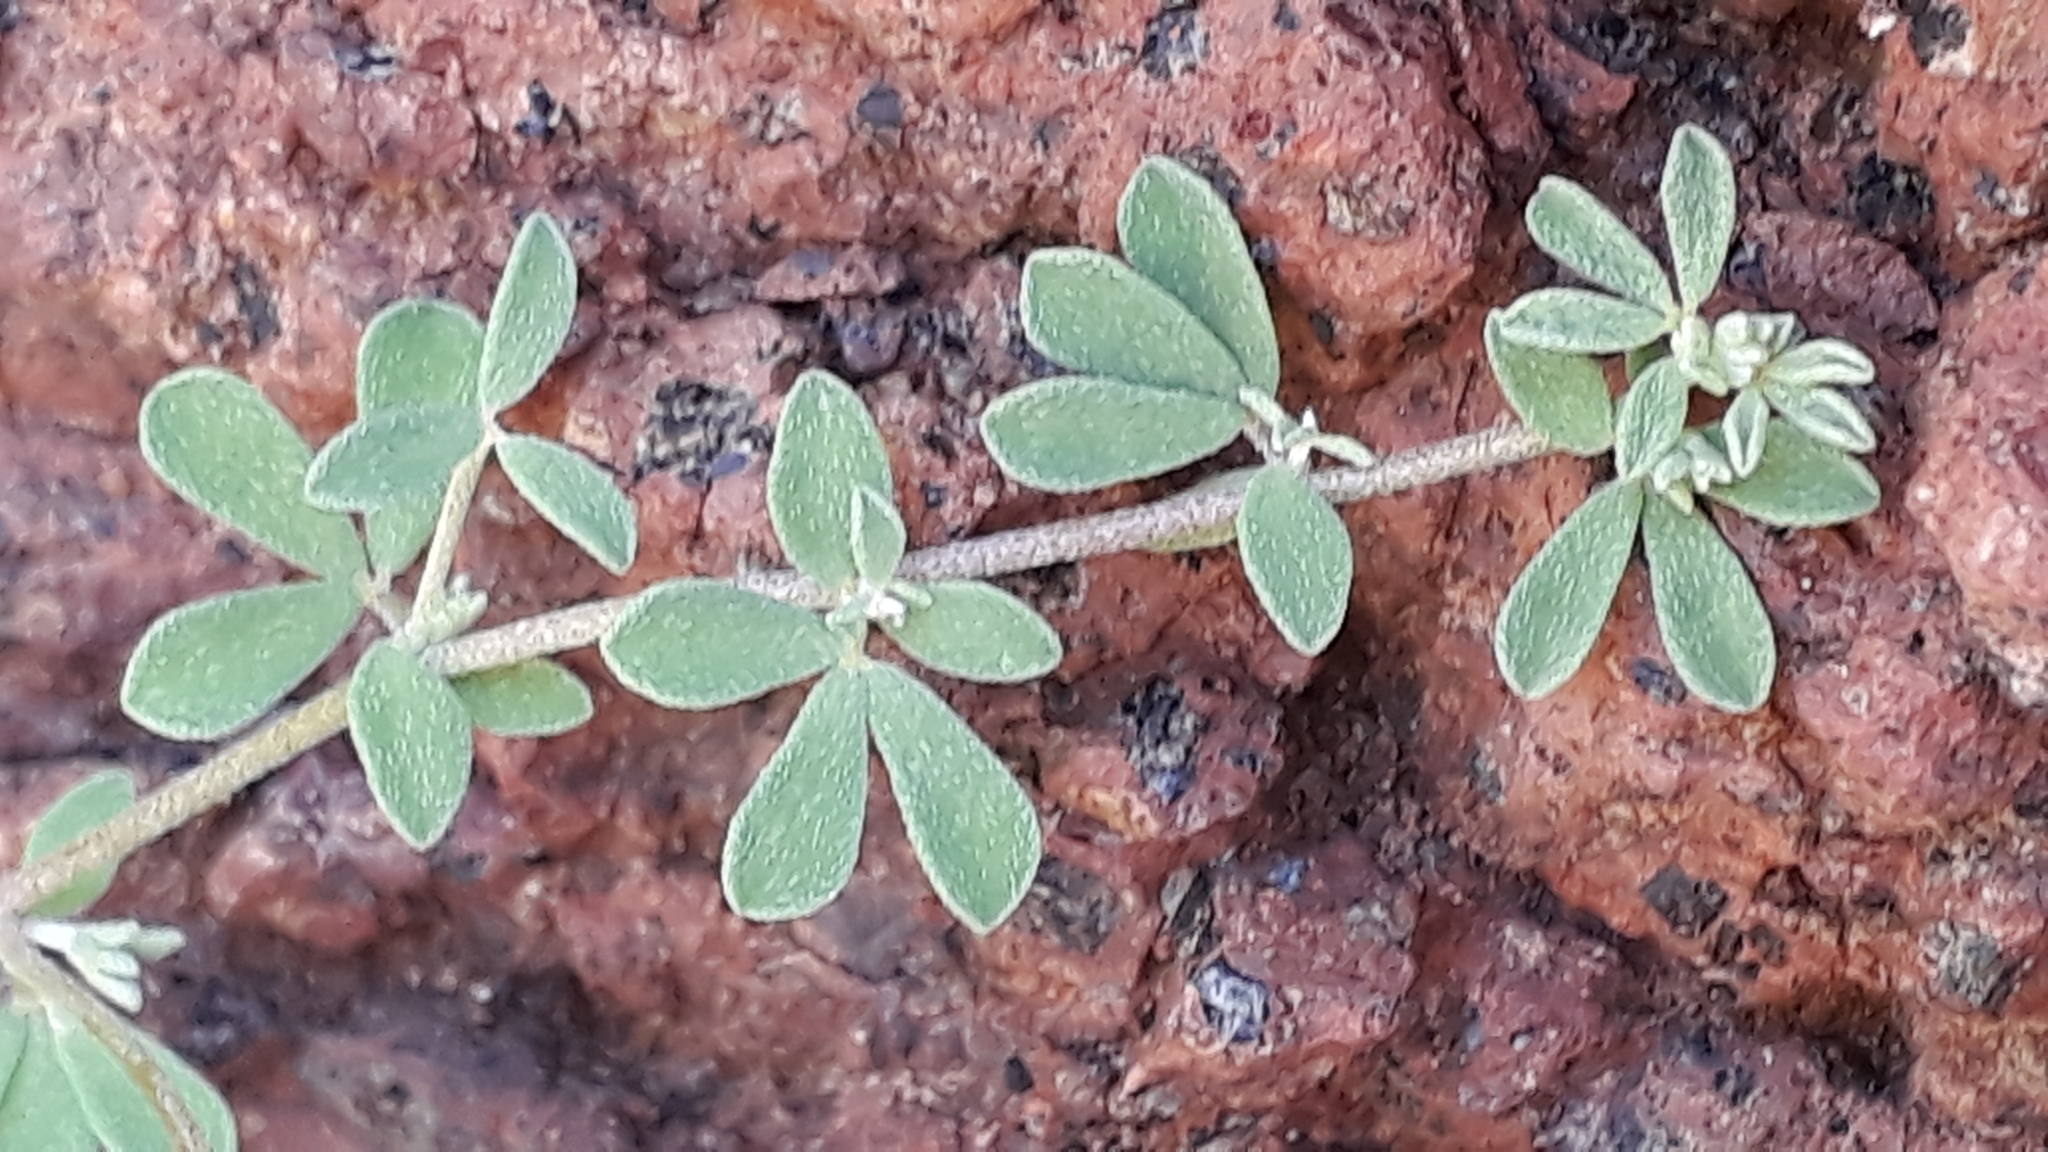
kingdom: Plantae
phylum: Tracheophyta
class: Magnoliopsida
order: Fabales
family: Fabaceae
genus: Lotus
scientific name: Lotus tenellus
